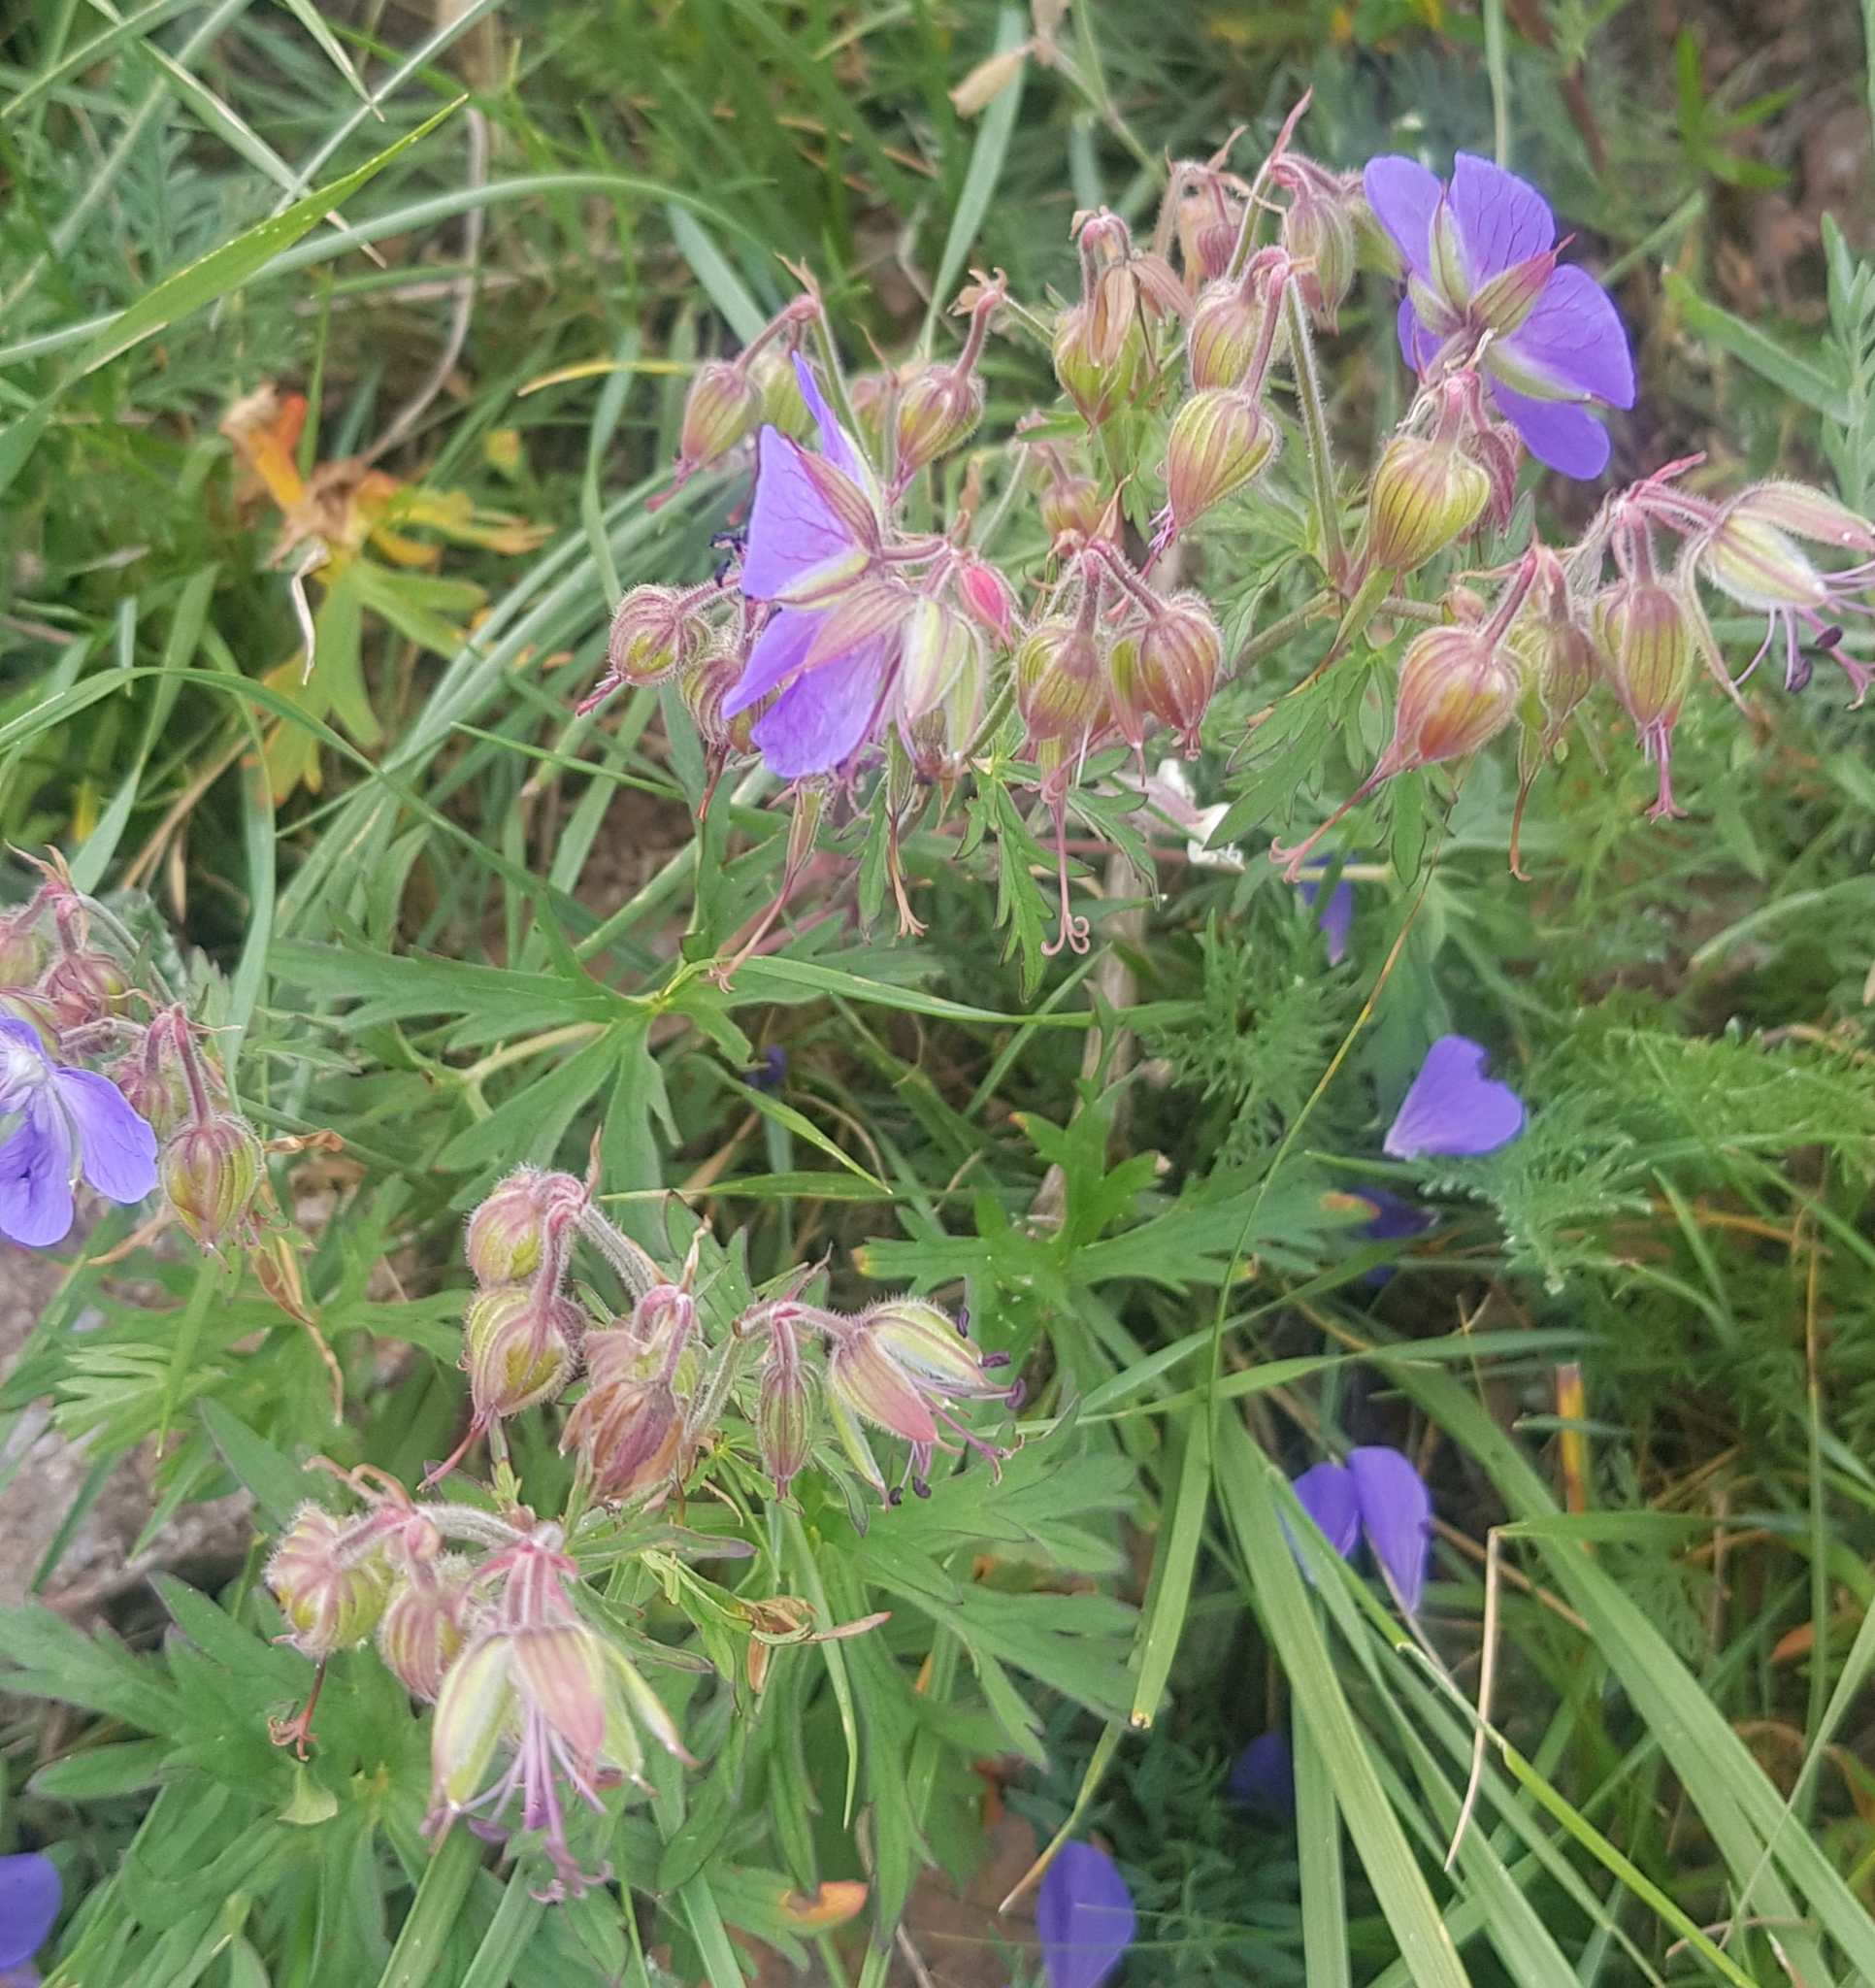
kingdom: Plantae
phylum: Tracheophyta
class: Magnoliopsida
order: Geraniales
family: Geraniaceae
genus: Geranium
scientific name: Geranium pratense
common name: Meadow crane's-bill
